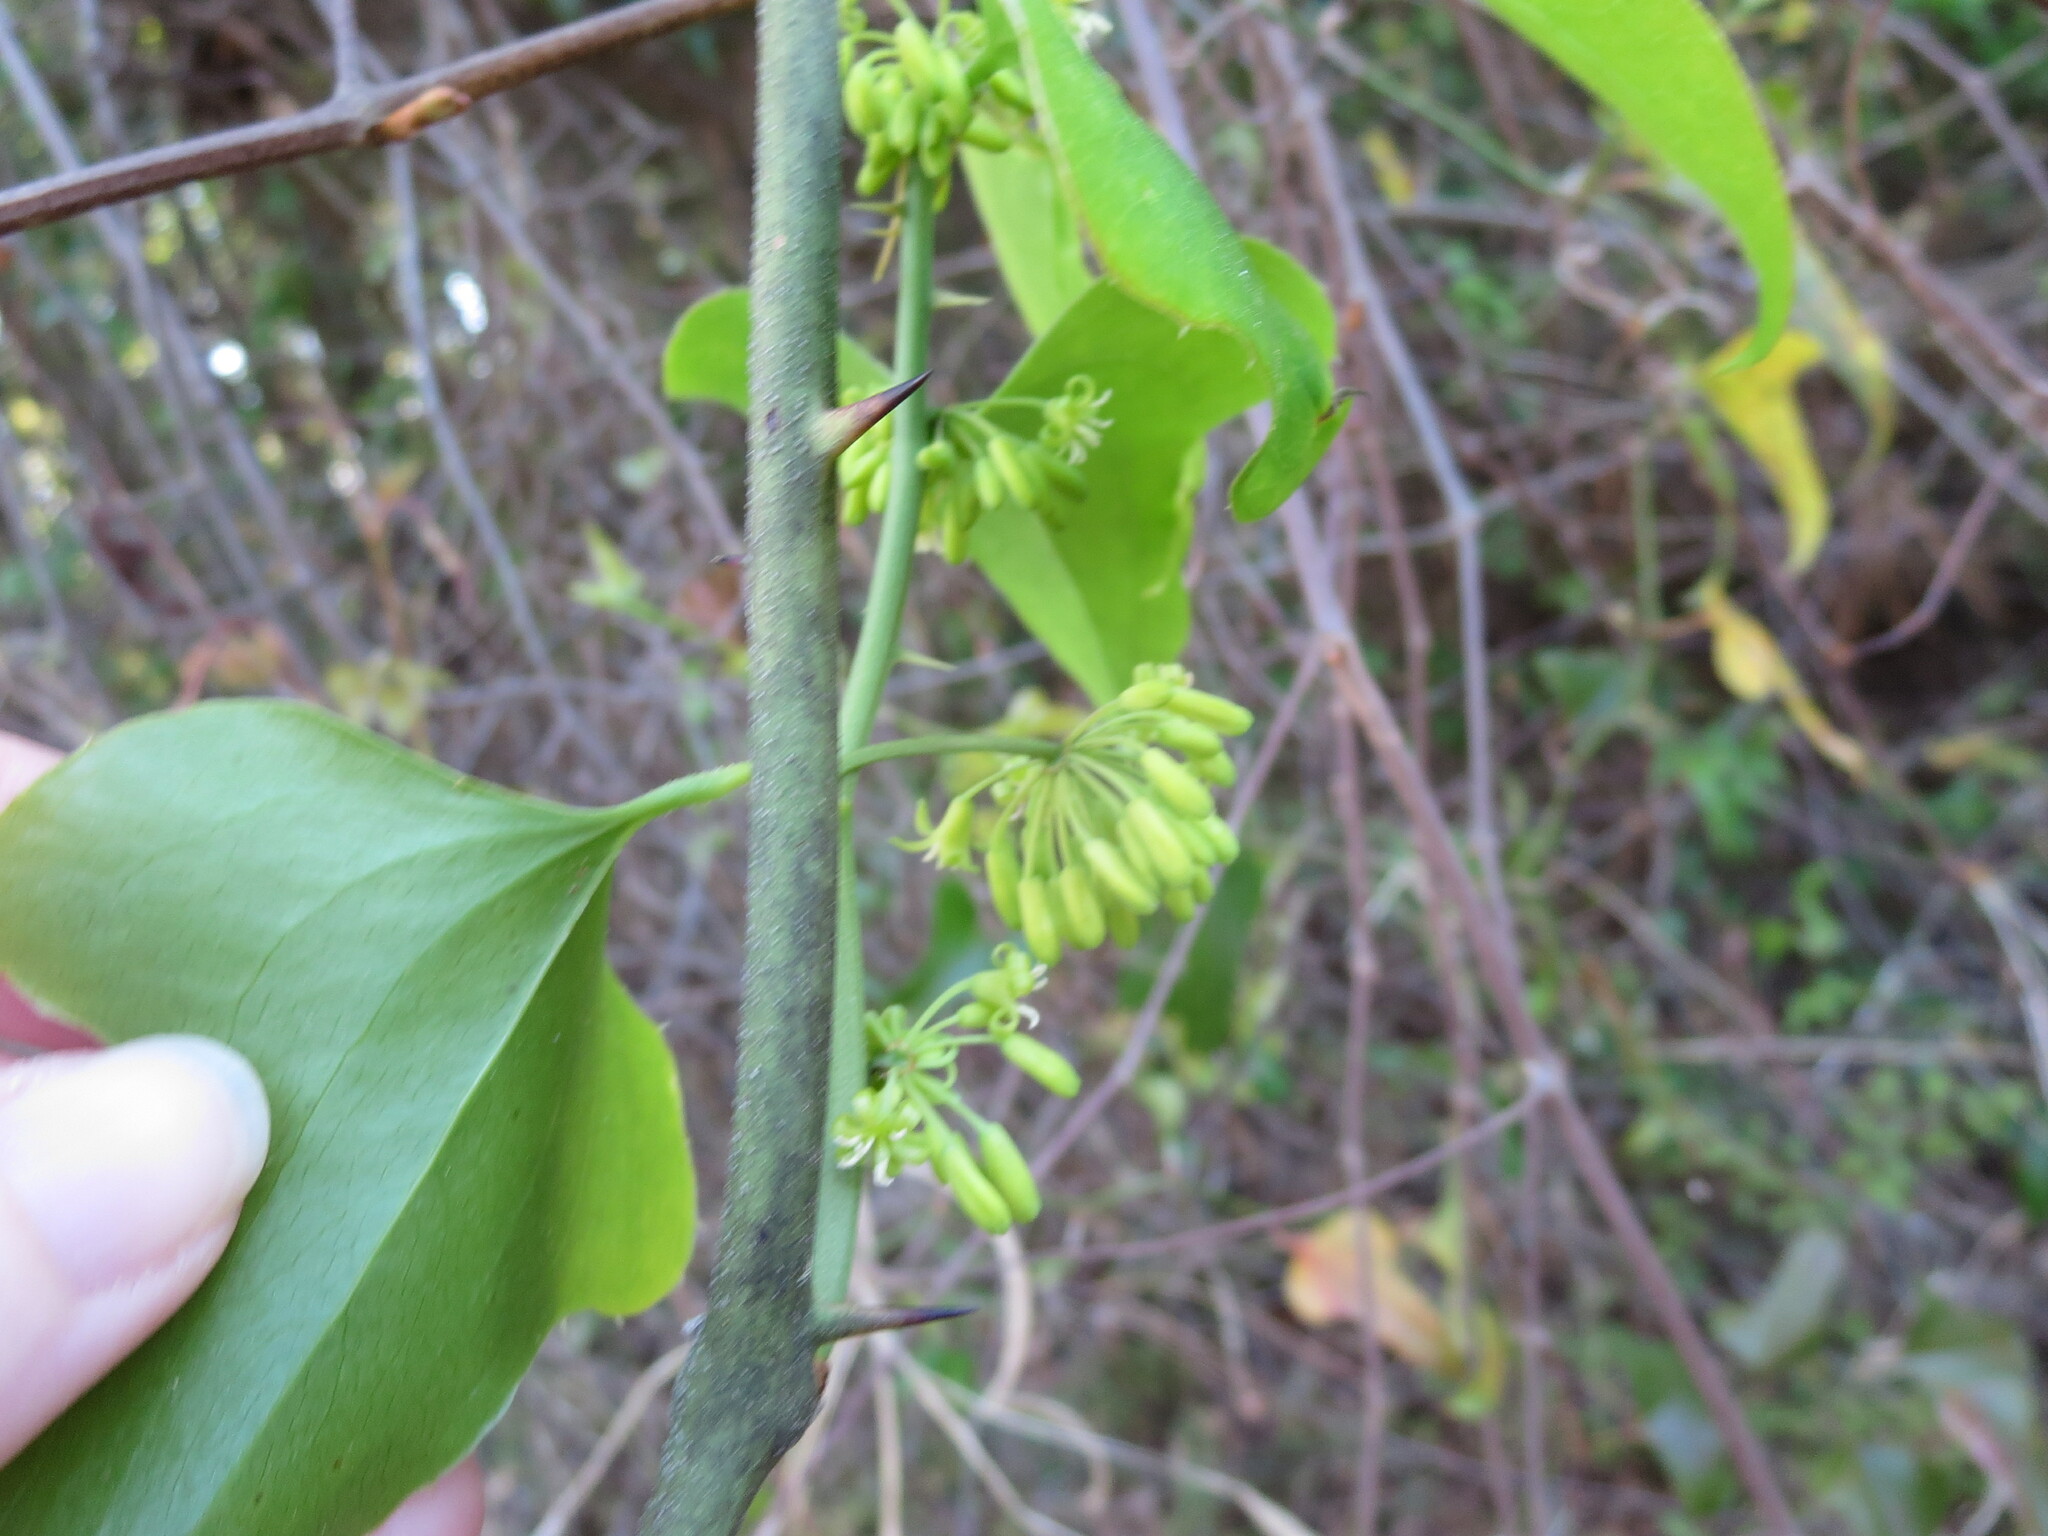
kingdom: Plantae
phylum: Tracheophyta
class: Liliopsida
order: Liliales
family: Smilacaceae
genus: Smilax
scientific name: Smilax bona-nox
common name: Catbrier
